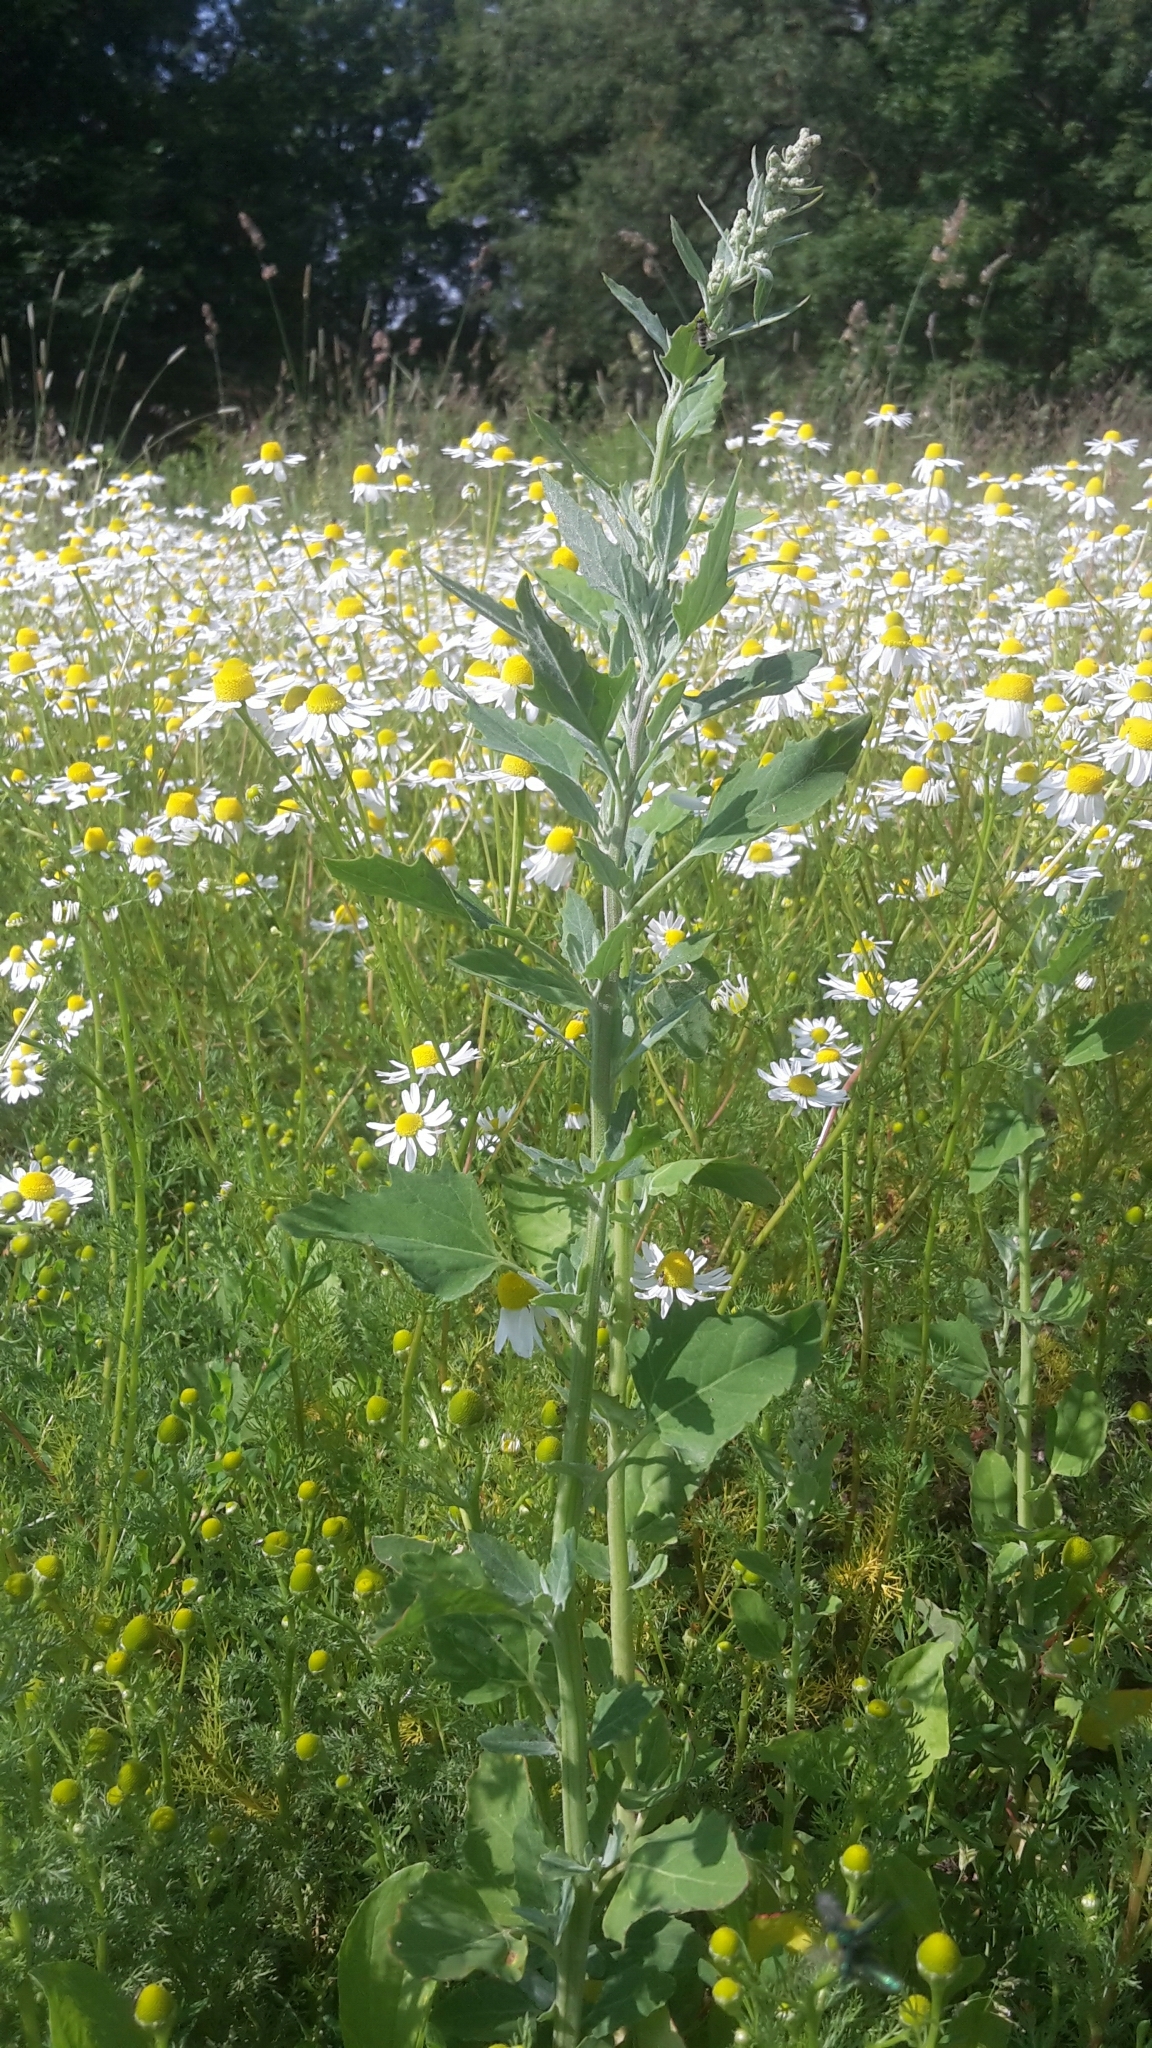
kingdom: Plantae
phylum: Tracheophyta
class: Magnoliopsida
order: Caryophyllales
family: Amaranthaceae
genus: Chenopodium
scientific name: Chenopodium album
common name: Fat-hen
